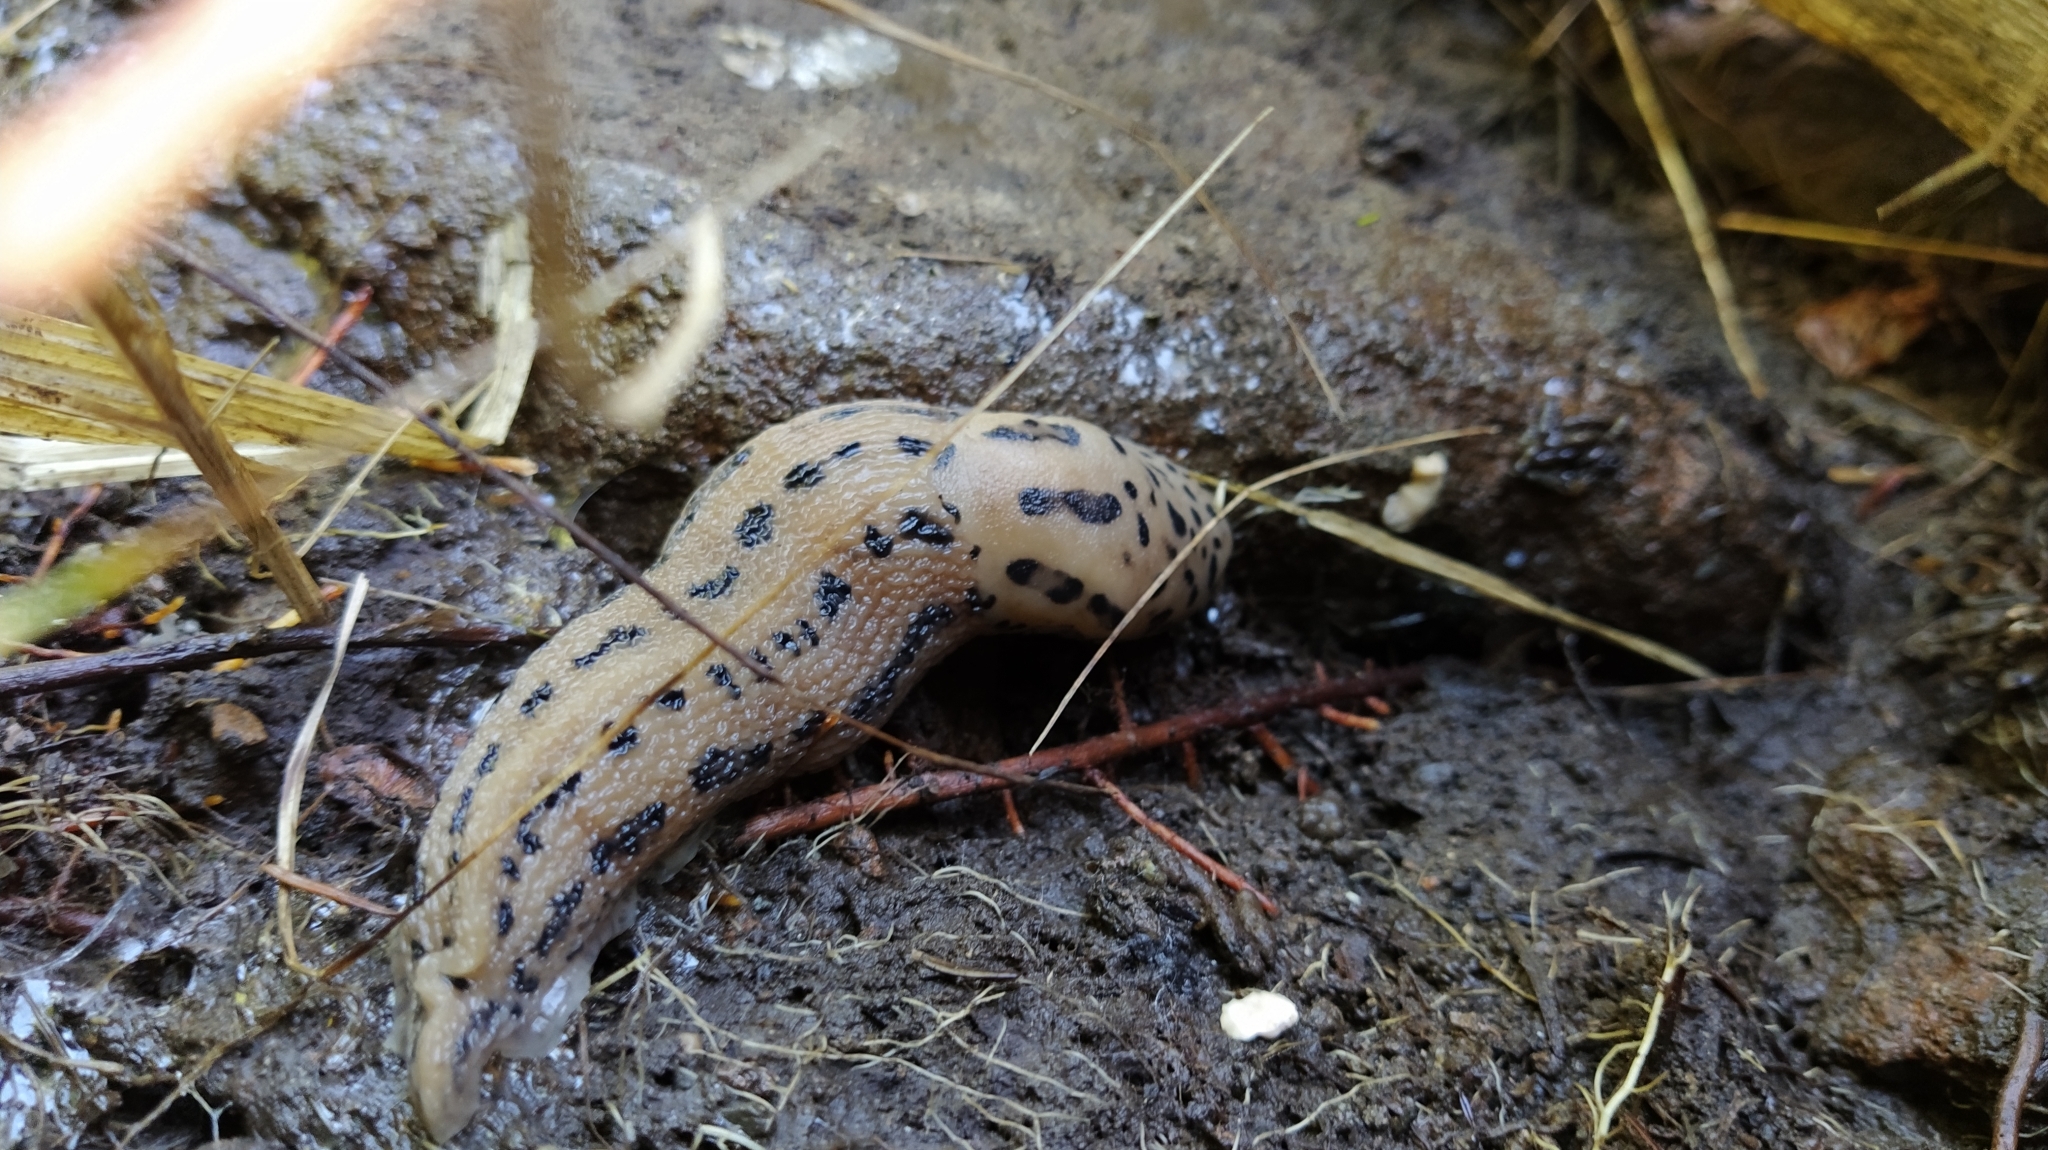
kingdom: Animalia
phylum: Mollusca
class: Gastropoda
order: Stylommatophora
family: Limacidae
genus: Limax
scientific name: Limax maximus
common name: Great grey slug
